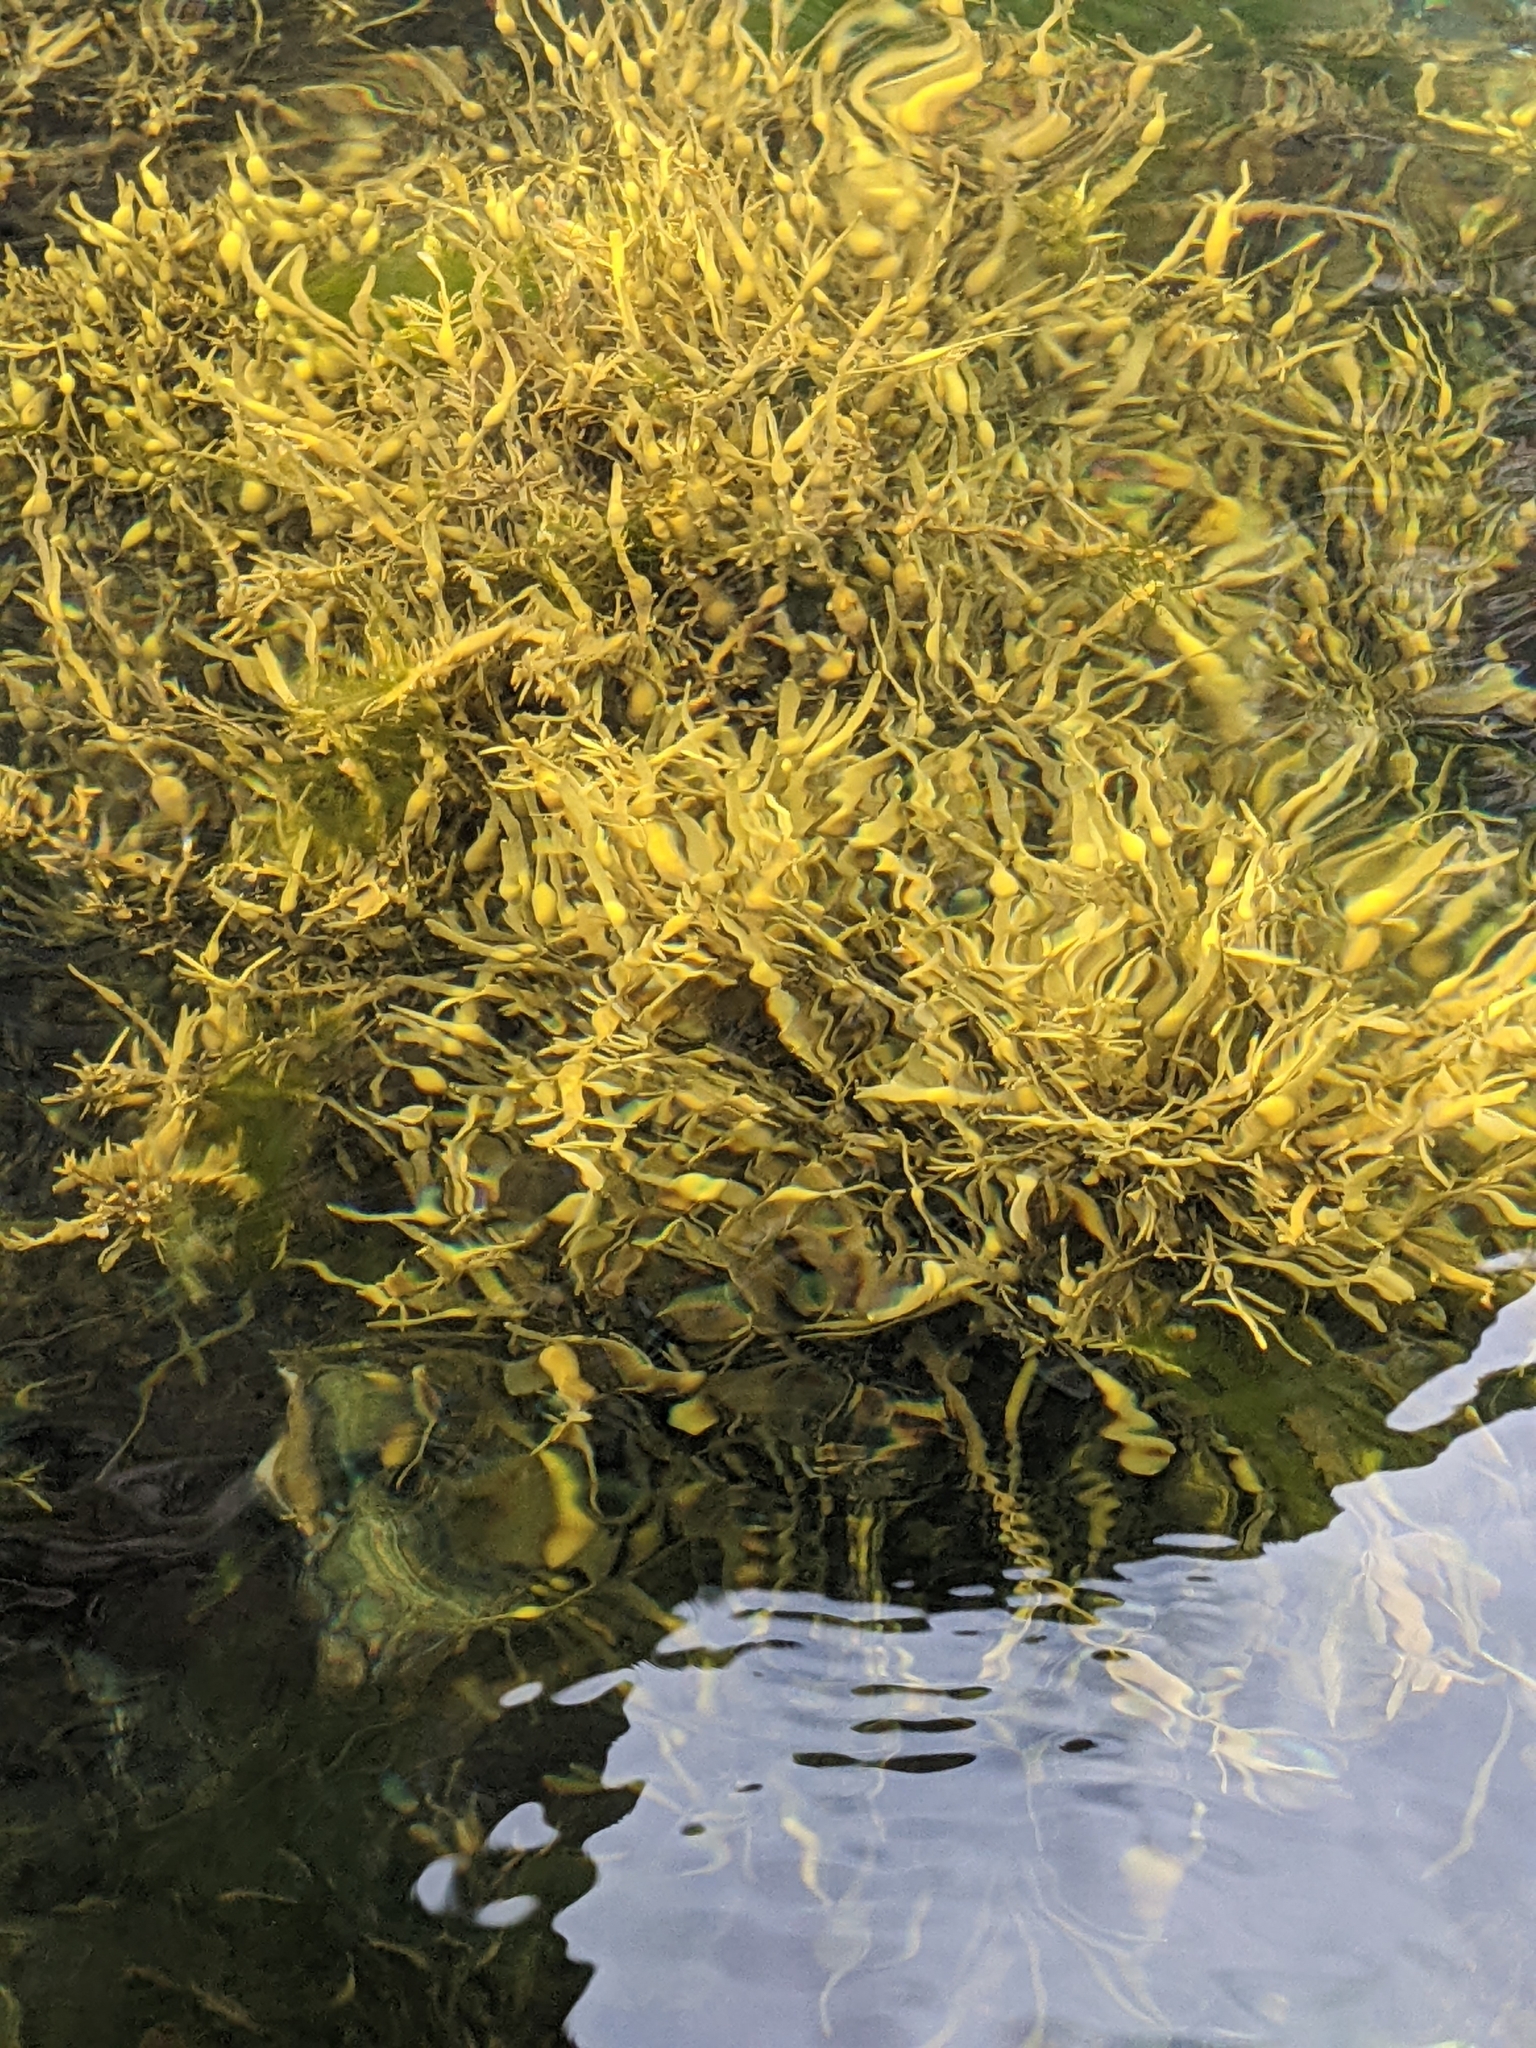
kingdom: Chromista
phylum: Ochrophyta
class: Phaeophyceae
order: Fucales
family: Fucaceae
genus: Ascophyllum
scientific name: Ascophyllum nodosum
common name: Knotted wrack
